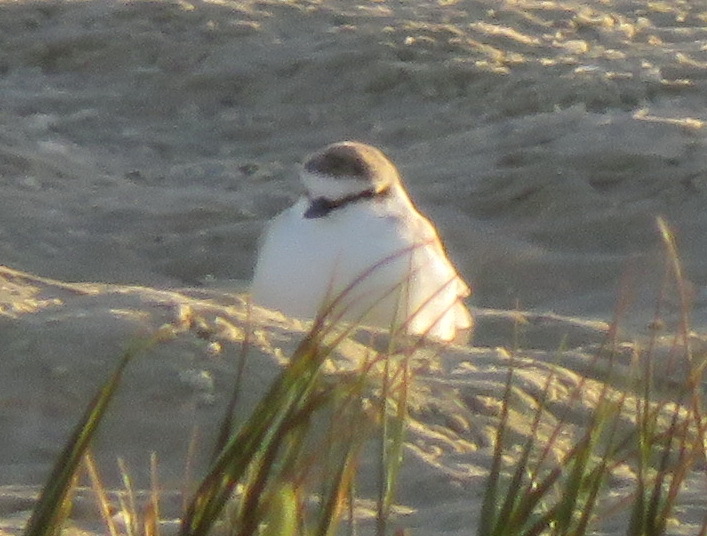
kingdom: Animalia
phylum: Chordata
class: Aves
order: Charadriiformes
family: Charadriidae
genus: Anarhynchus
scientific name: Anarhynchus
